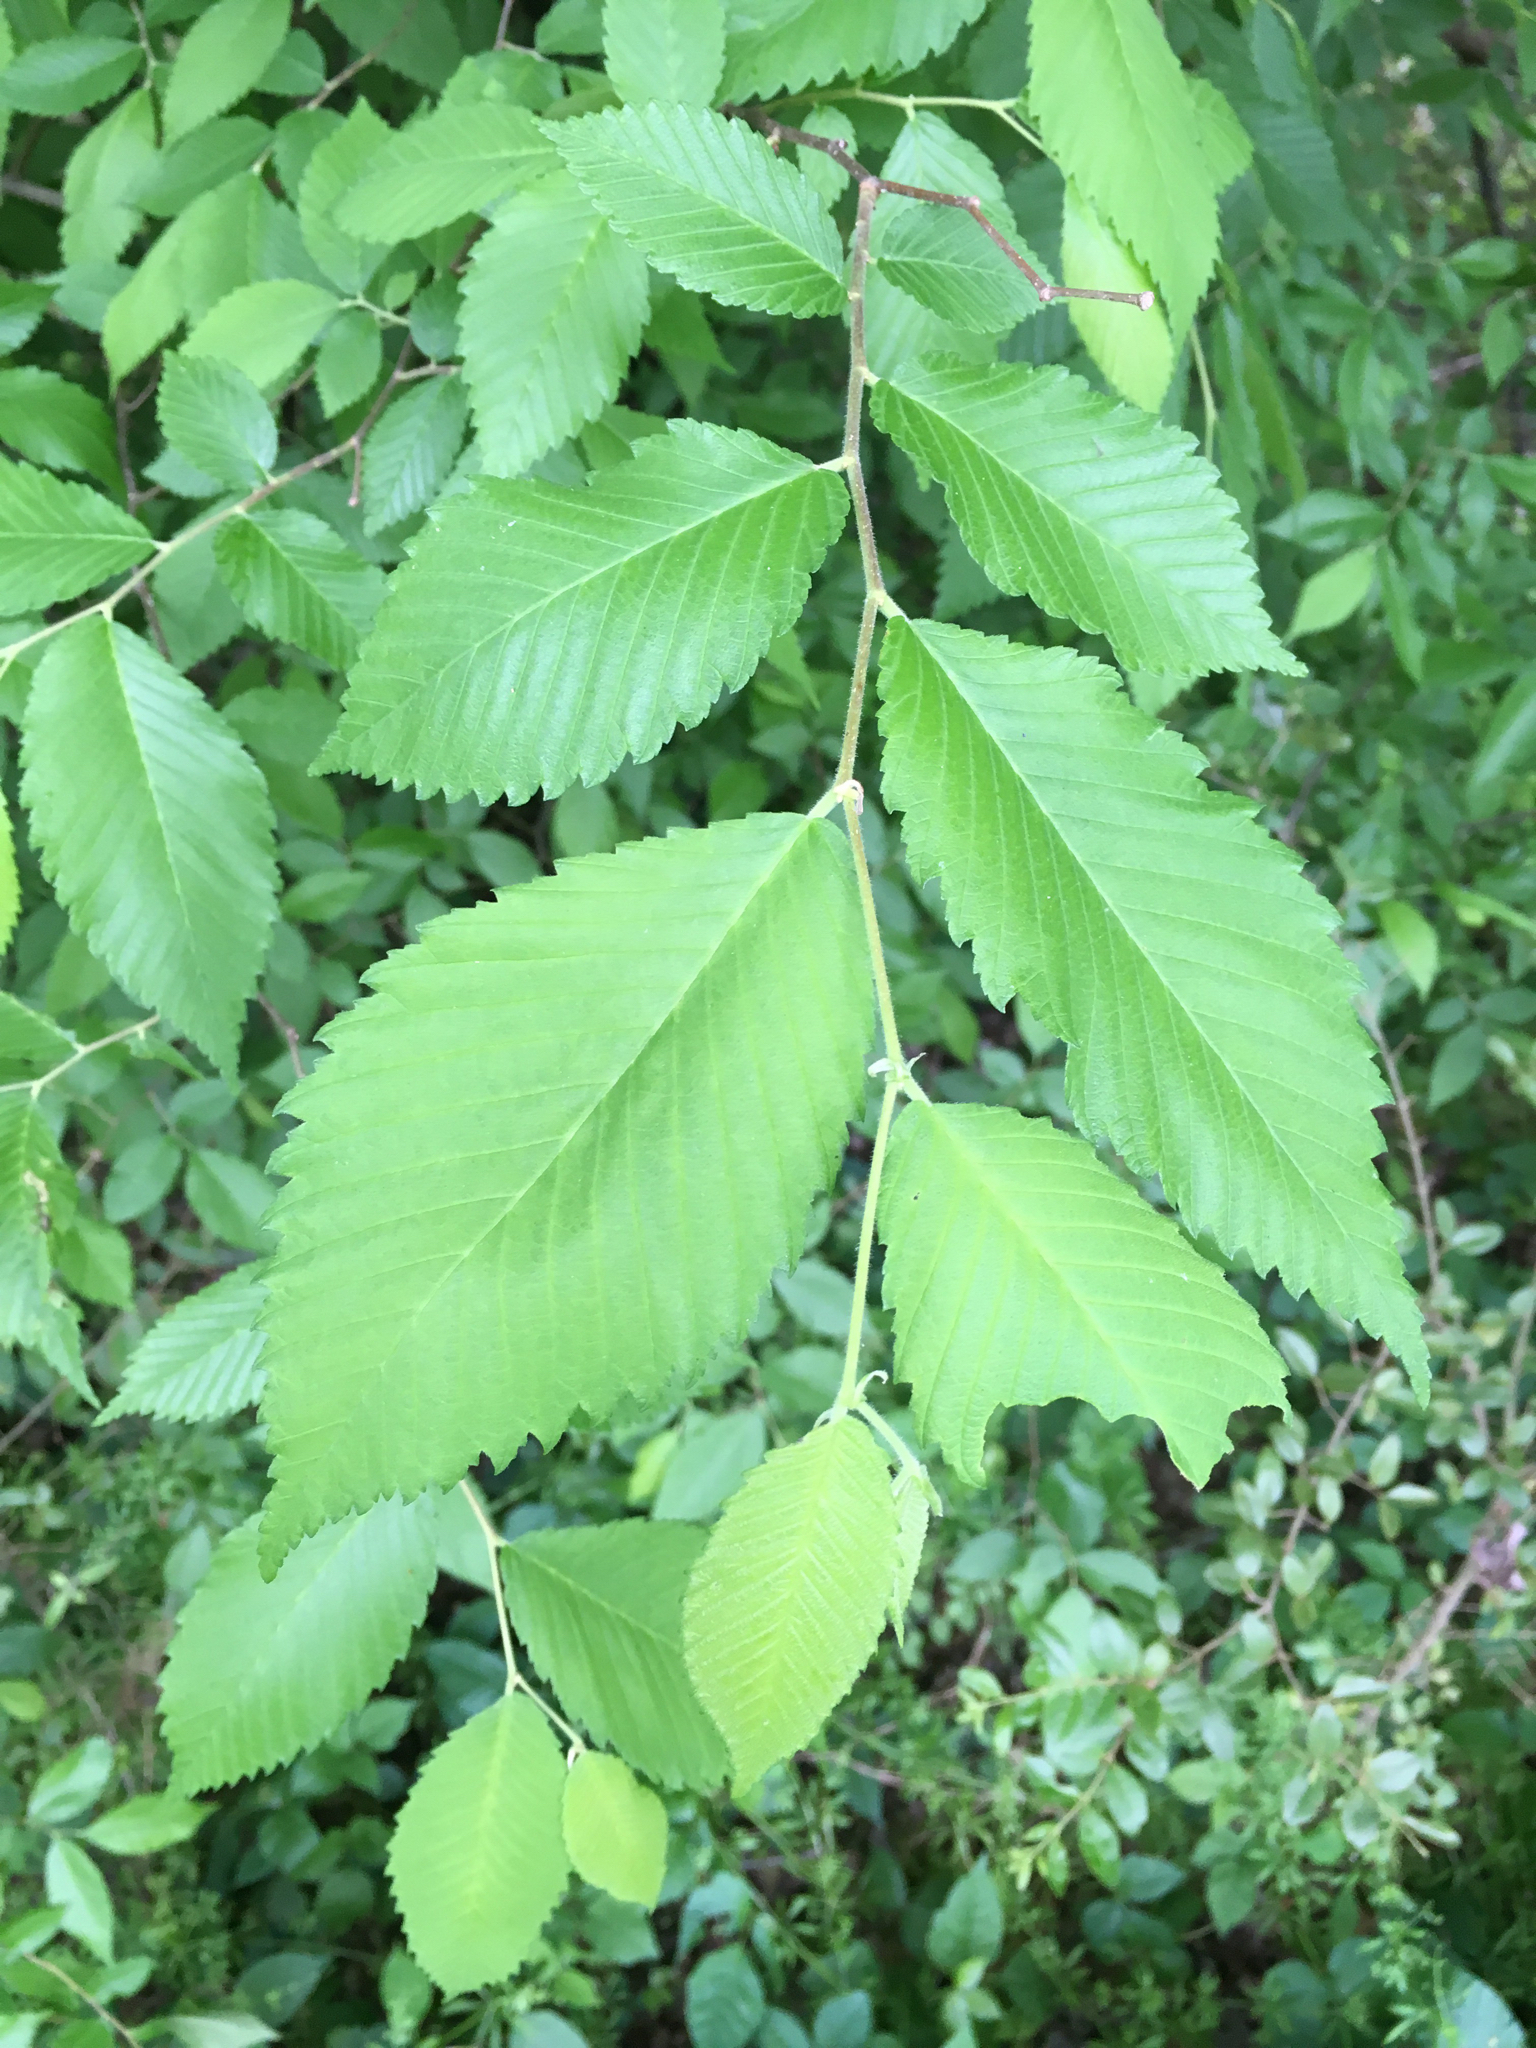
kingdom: Plantae
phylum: Tracheophyta
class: Magnoliopsida
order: Rosales
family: Ulmaceae
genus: Ulmus
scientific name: Ulmus americana
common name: American elm
